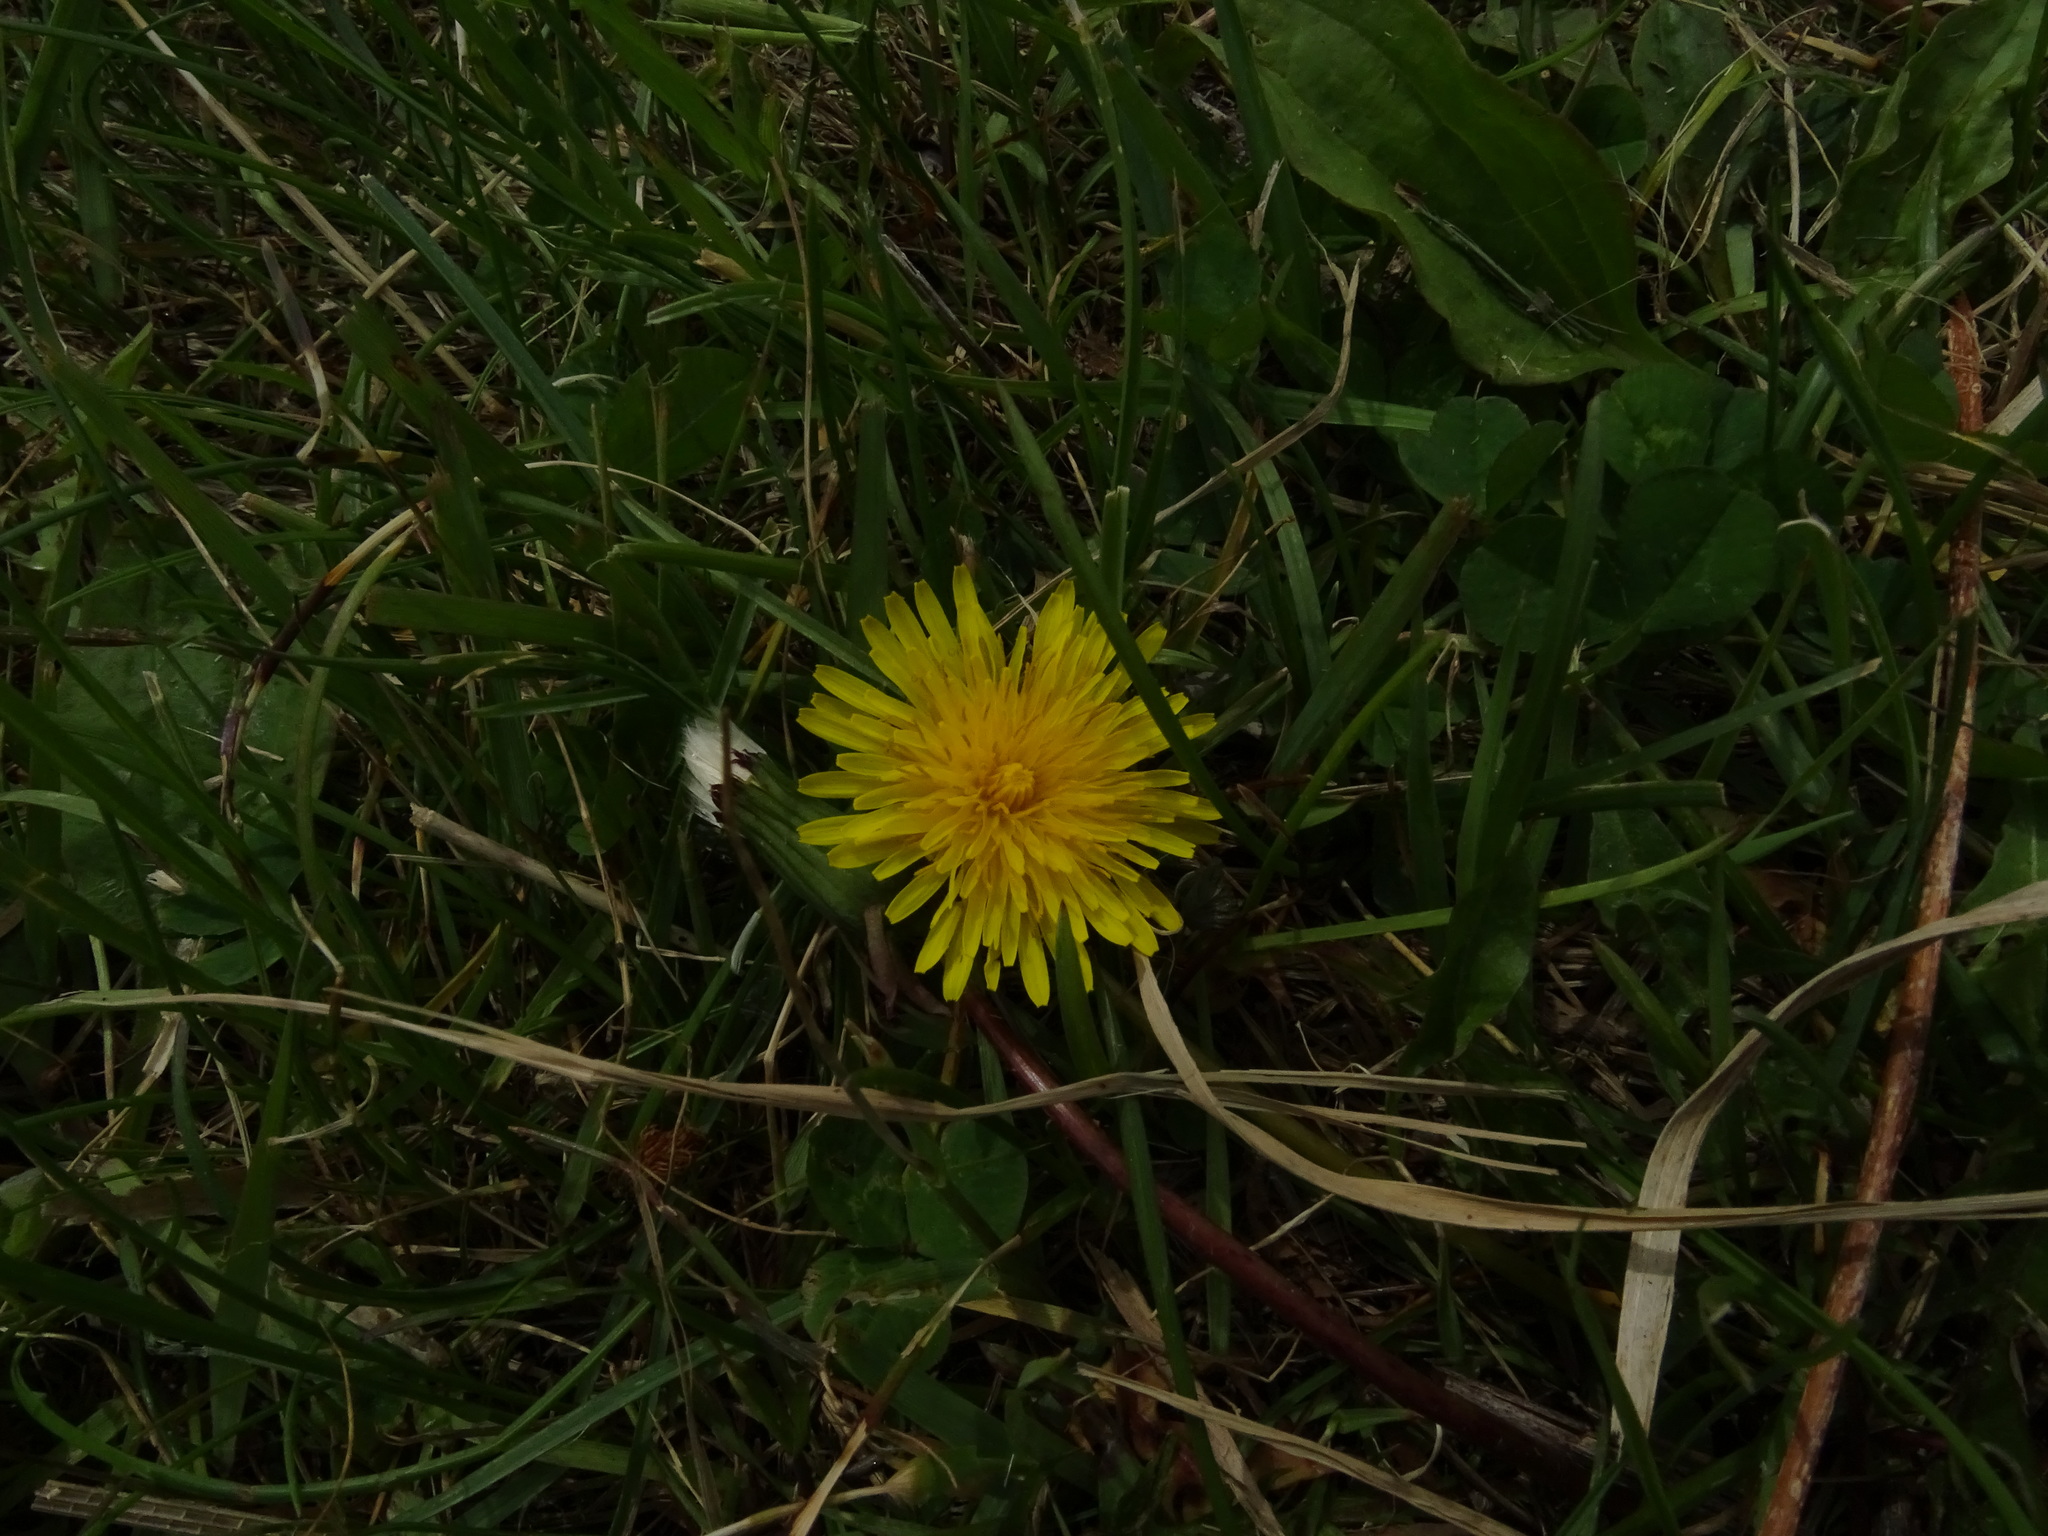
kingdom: Plantae
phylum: Tracheophyta
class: Magnoliopsida
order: Asterales
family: Asteraceae
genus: Taraxacum
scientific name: Taraxacum officinale
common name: Common dandelion
